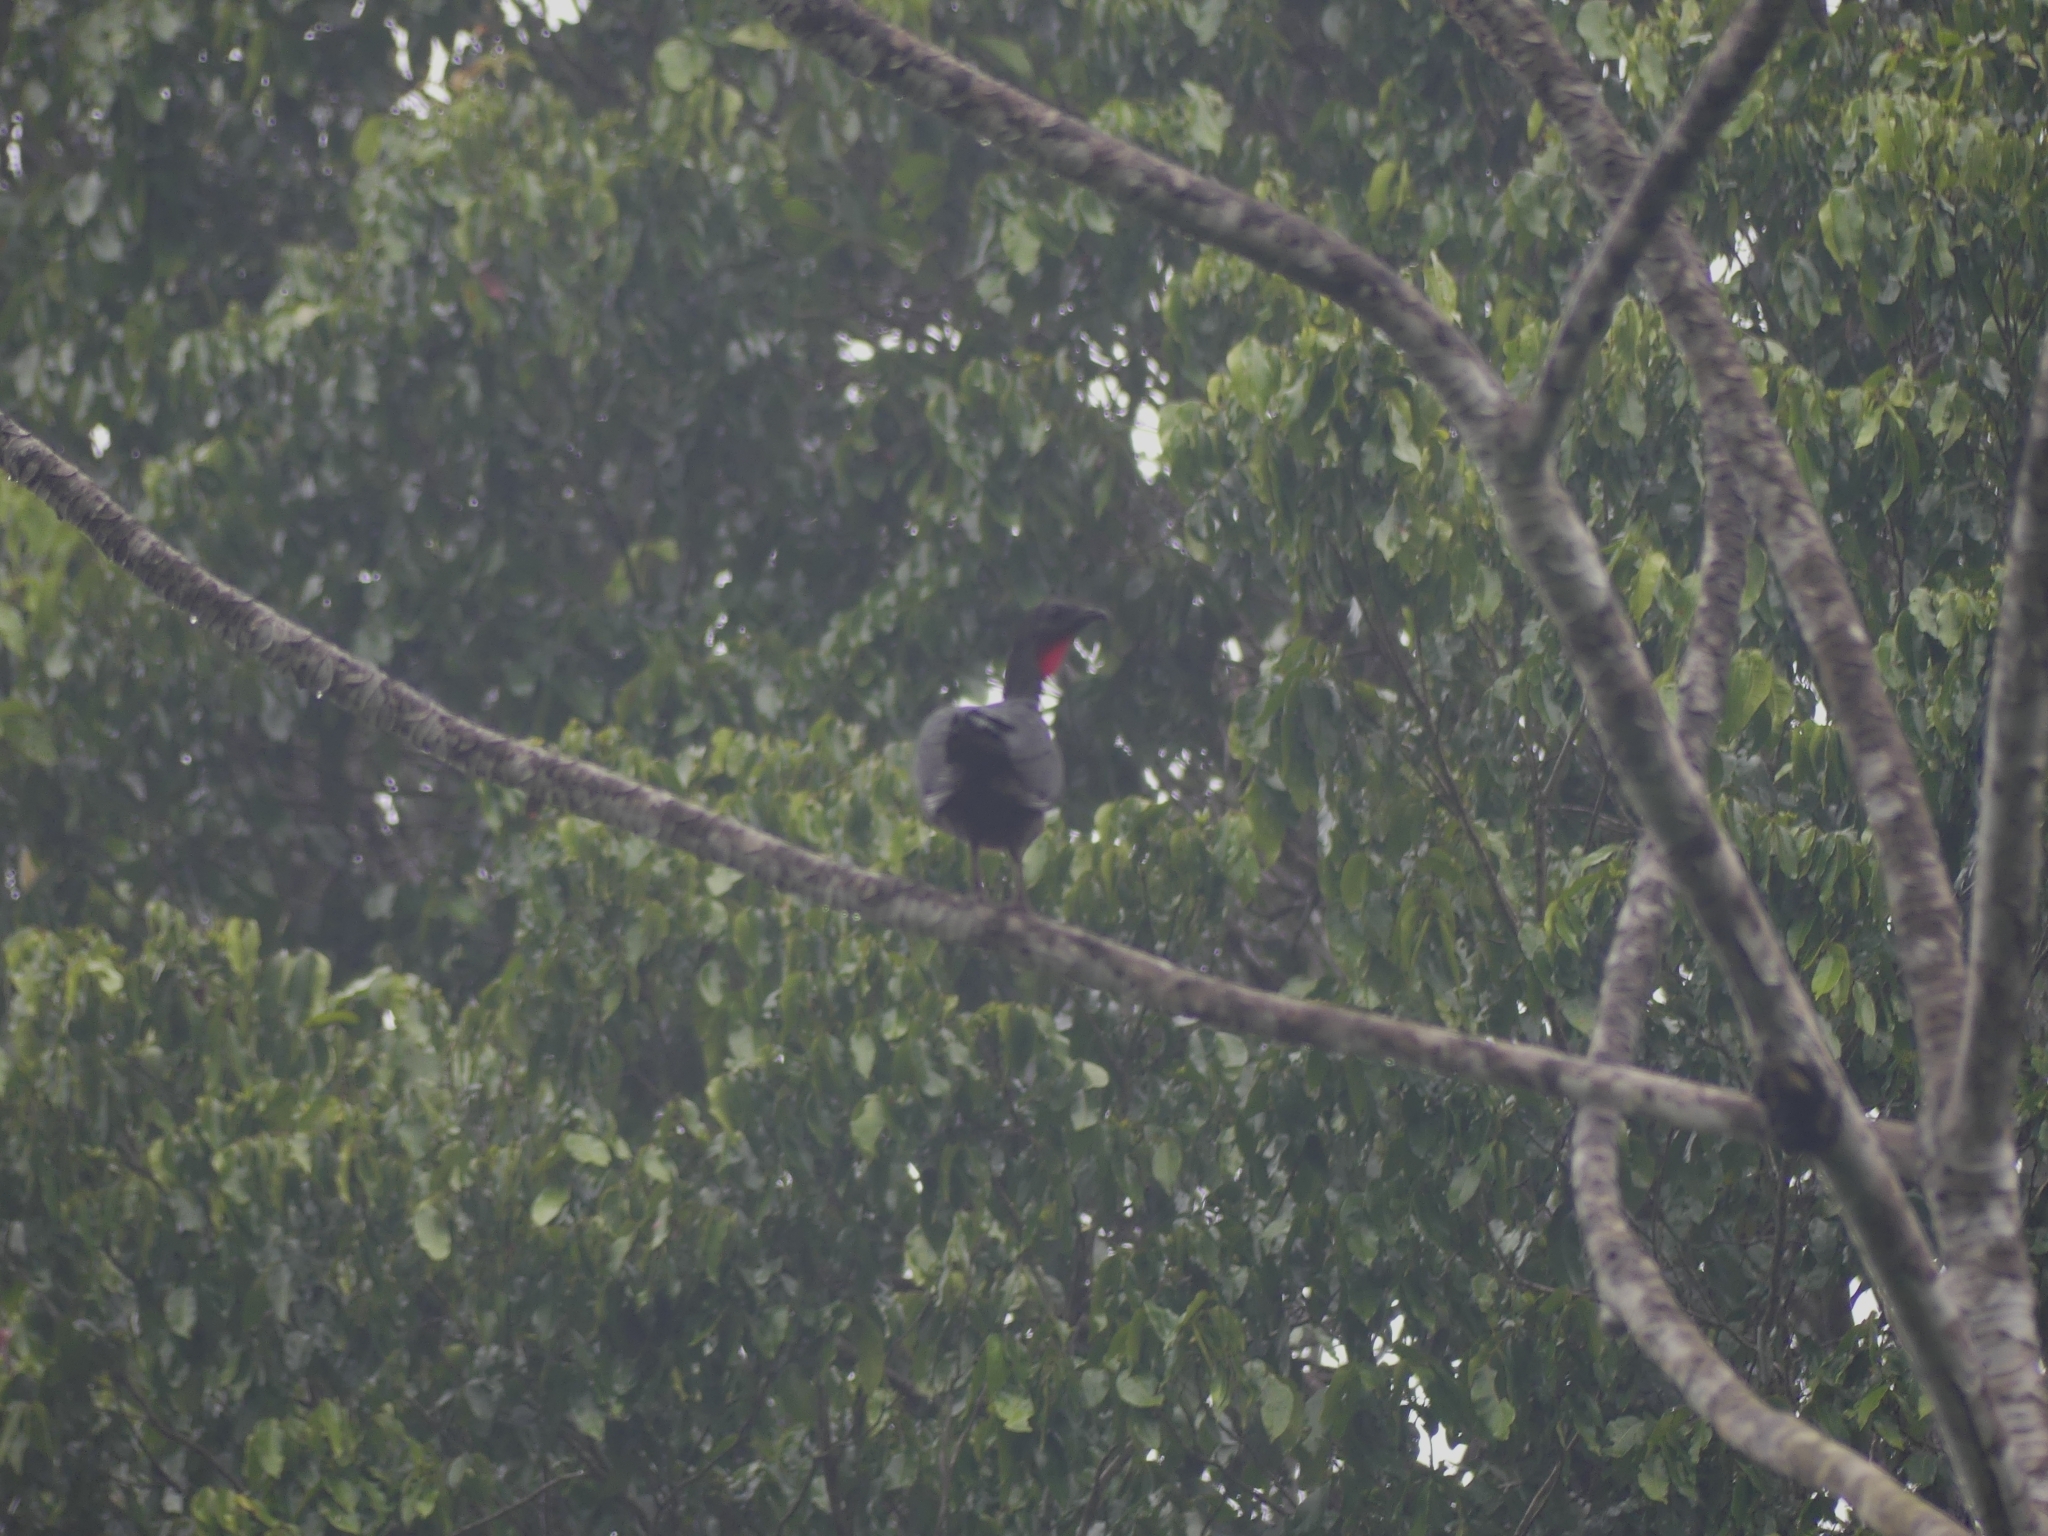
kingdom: Animalia
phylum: Chordata
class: Aves
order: Galliformes
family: Cracidae
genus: Penelope
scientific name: Penelope marail
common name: Marail guan
